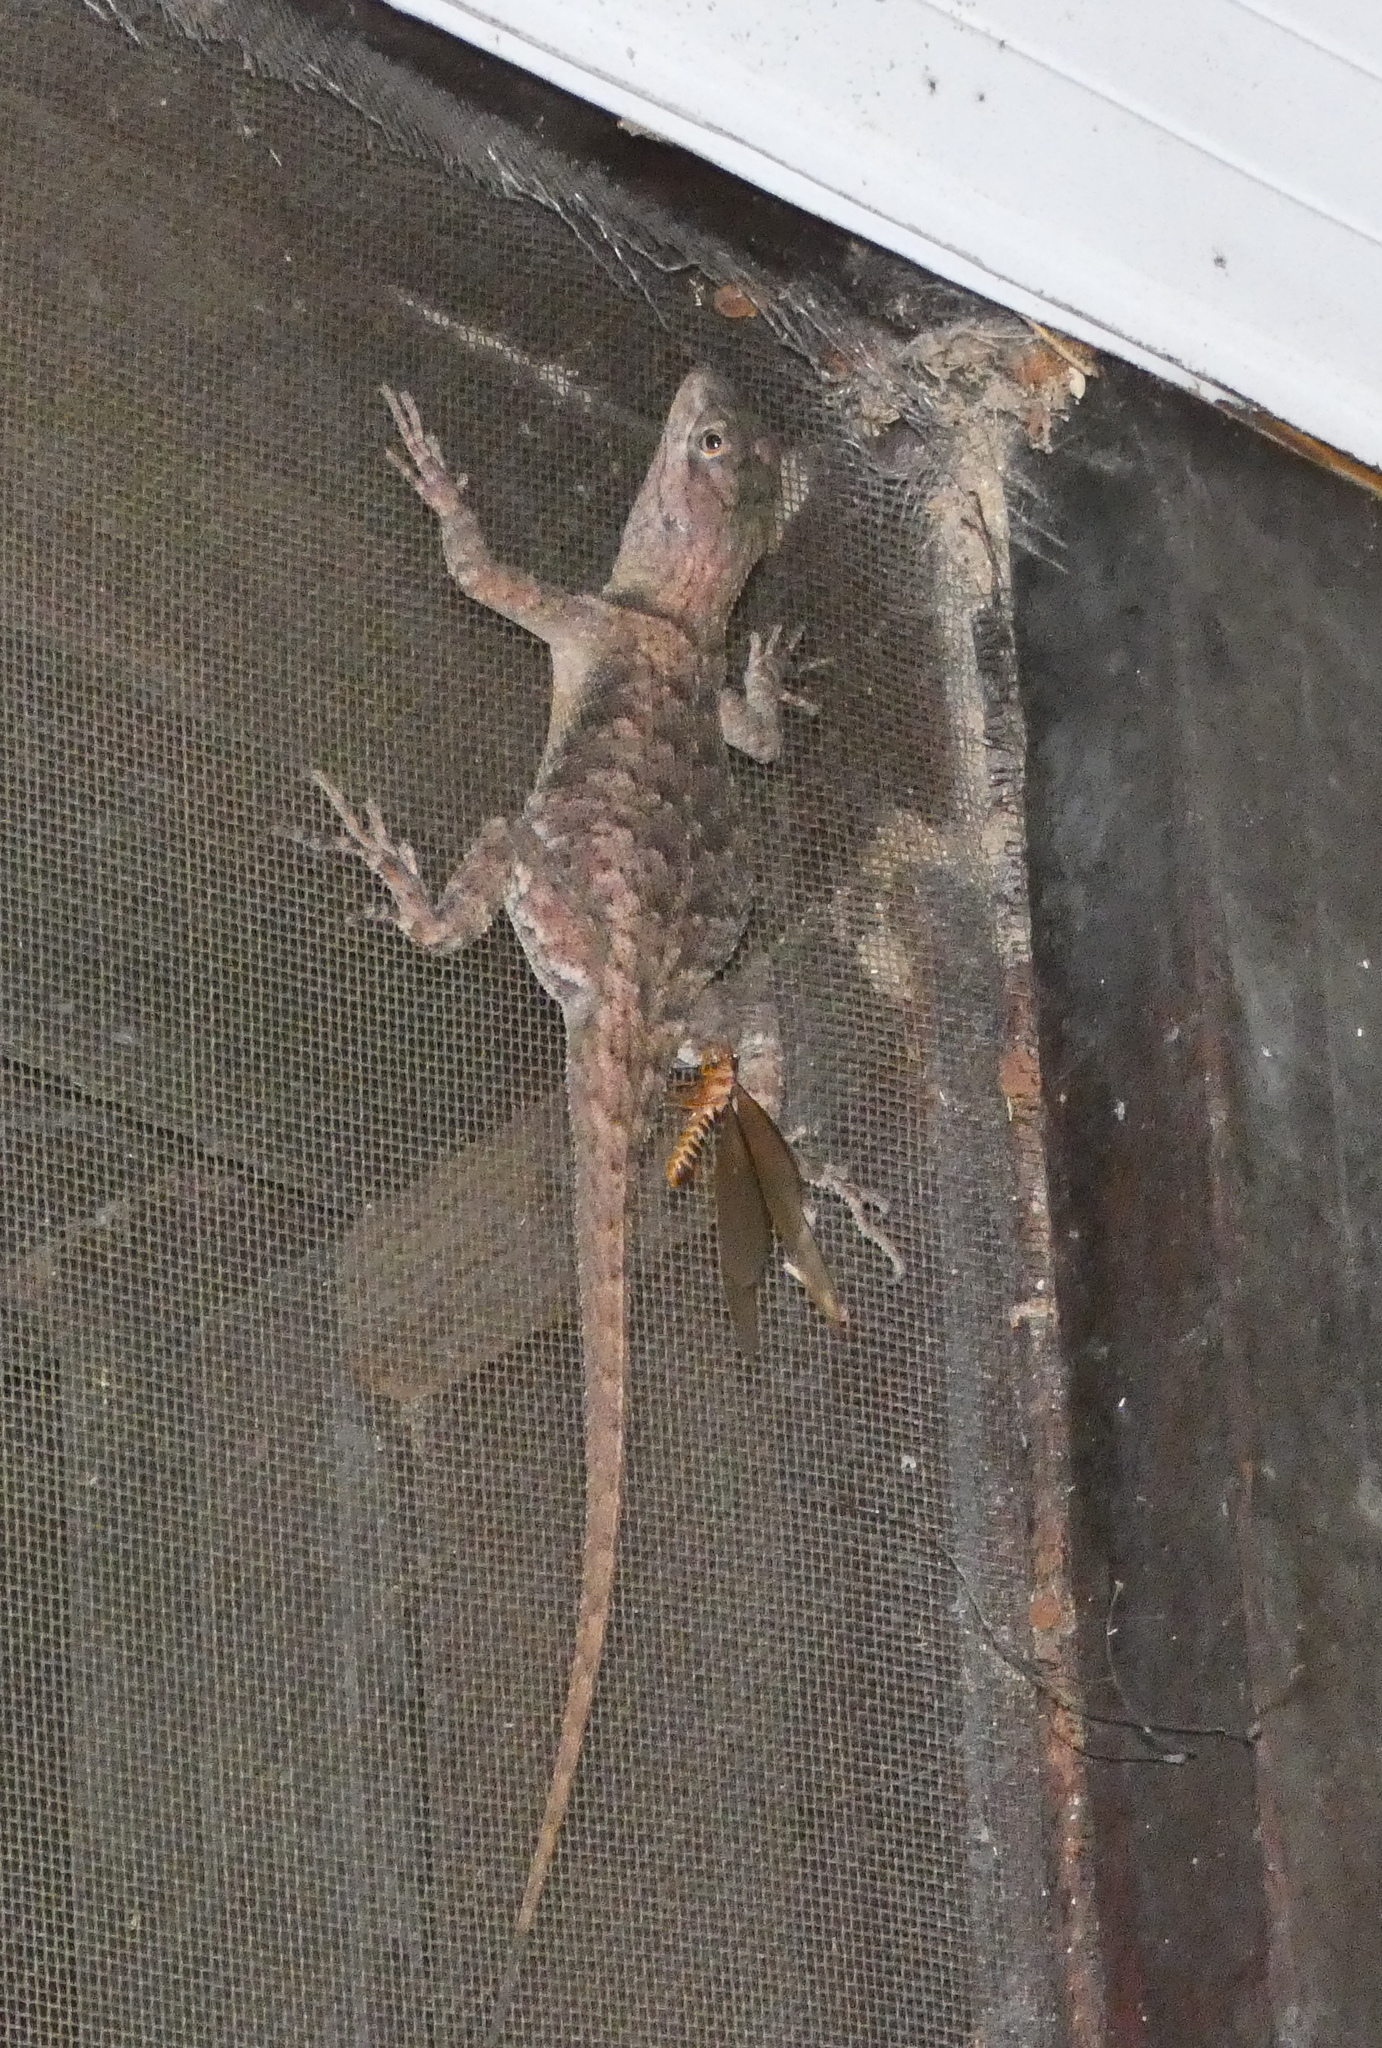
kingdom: Animalia
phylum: Chordata
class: Squamata
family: Tropiduridae
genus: Tropidurus
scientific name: Tropidurus hispidus
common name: Peters' lava lizard
